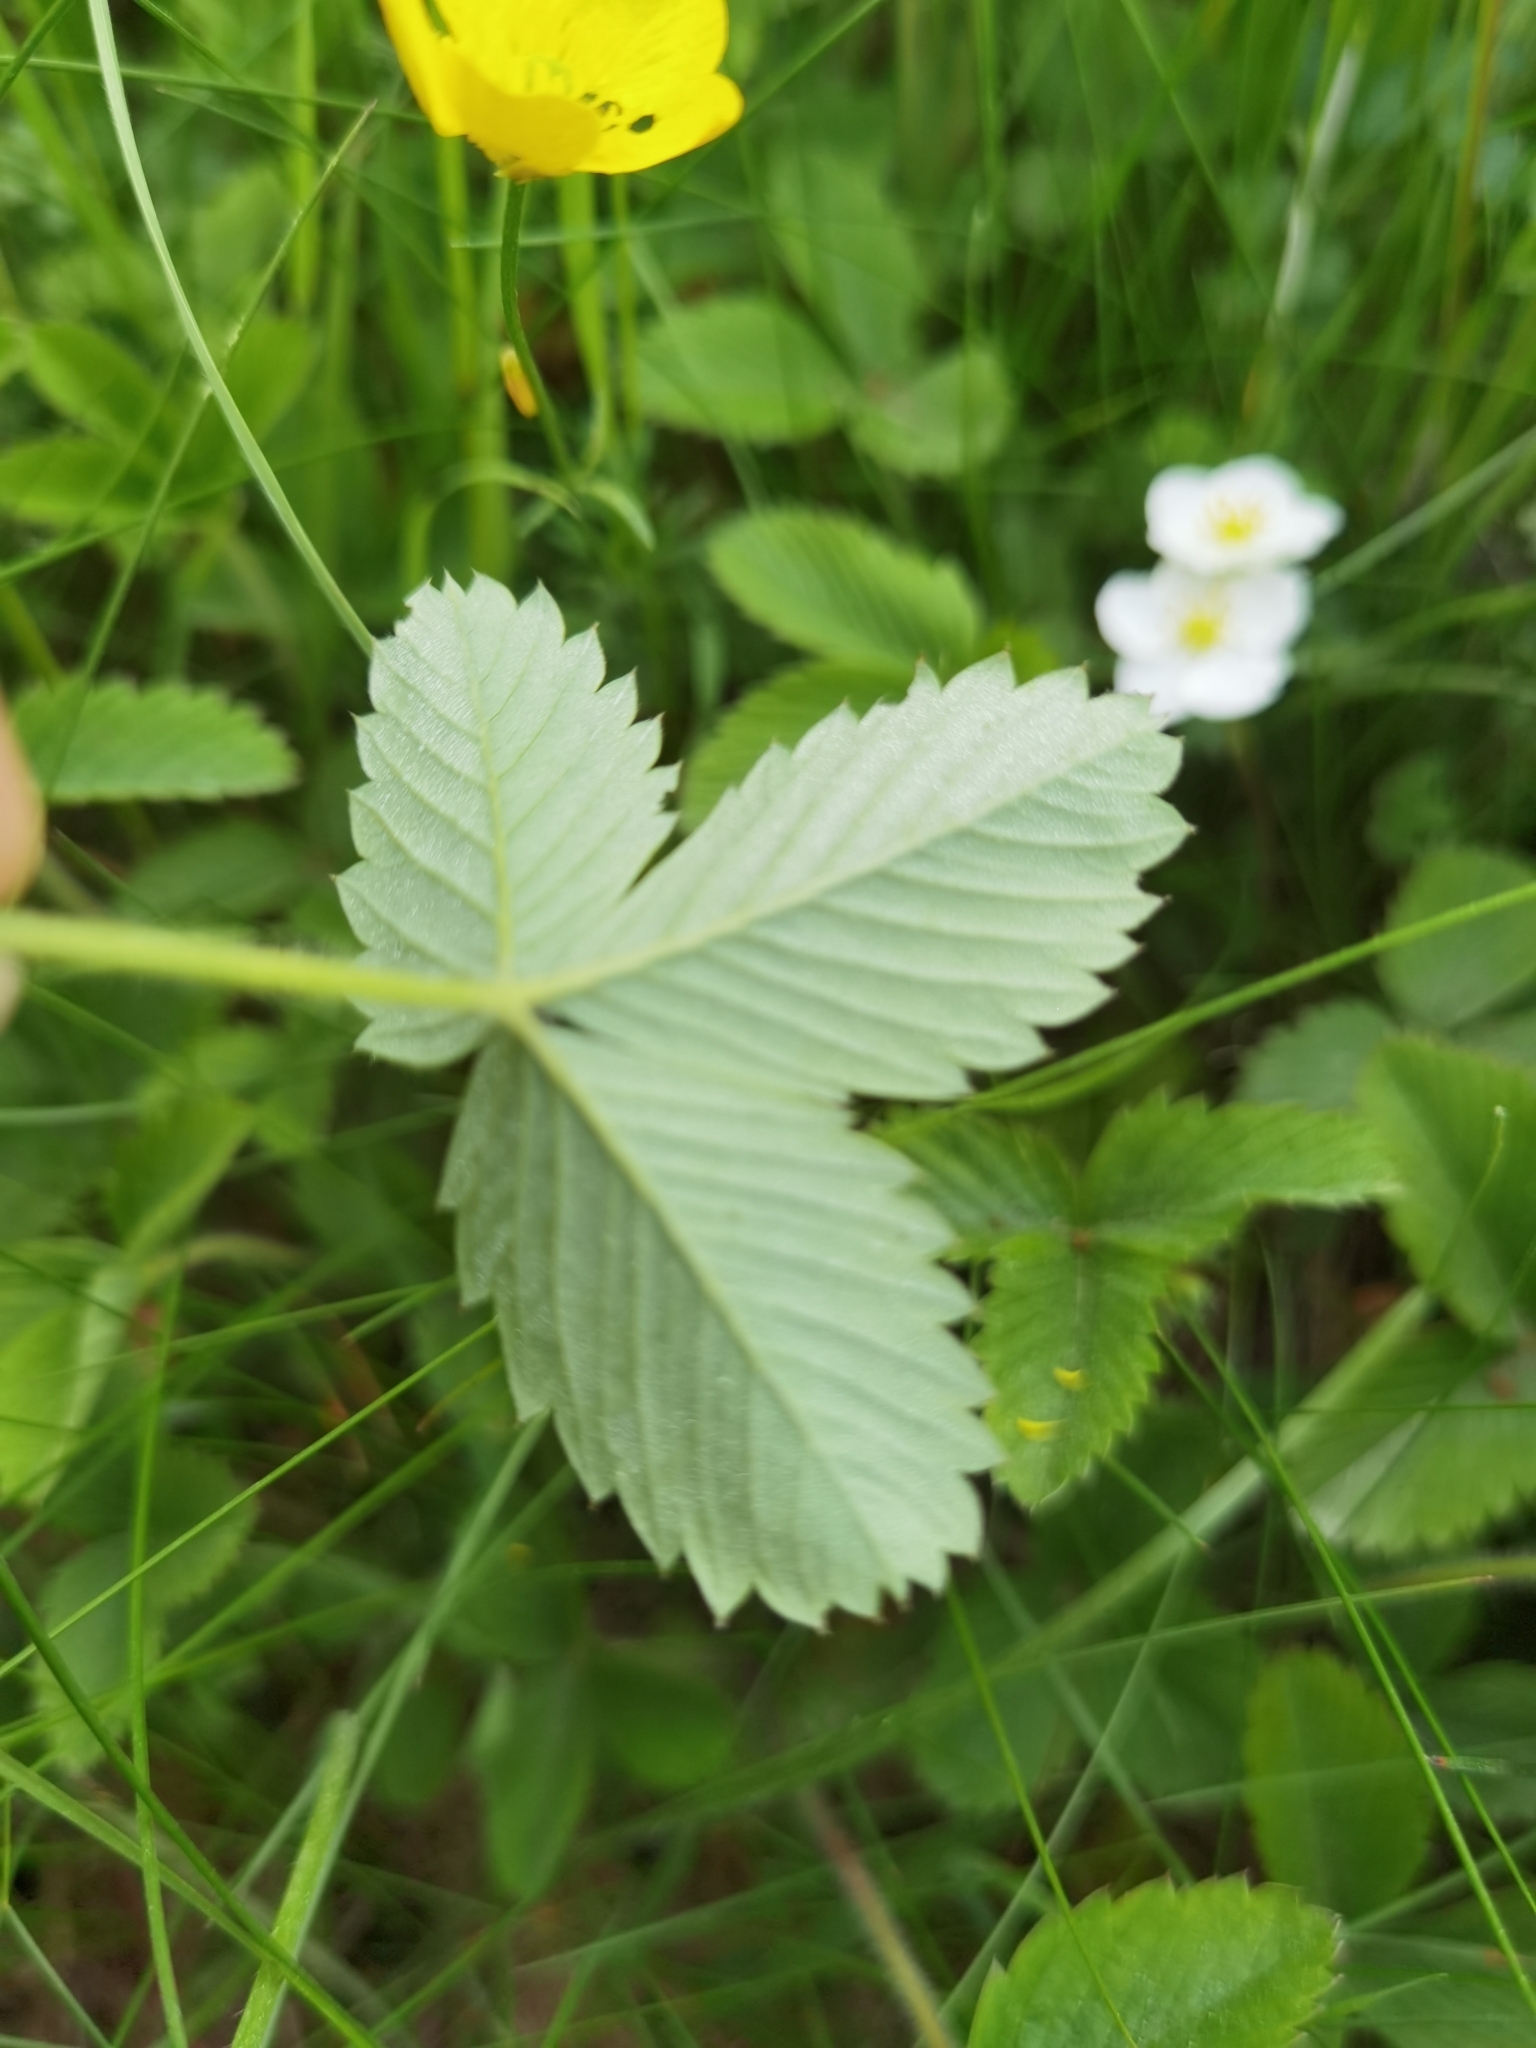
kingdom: Plantae
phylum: Tracheophyta
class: Magnoliopsida
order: Rosales
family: Rosaceae
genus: Fragaria
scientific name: Fragaria vesca
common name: Wild strawberry
